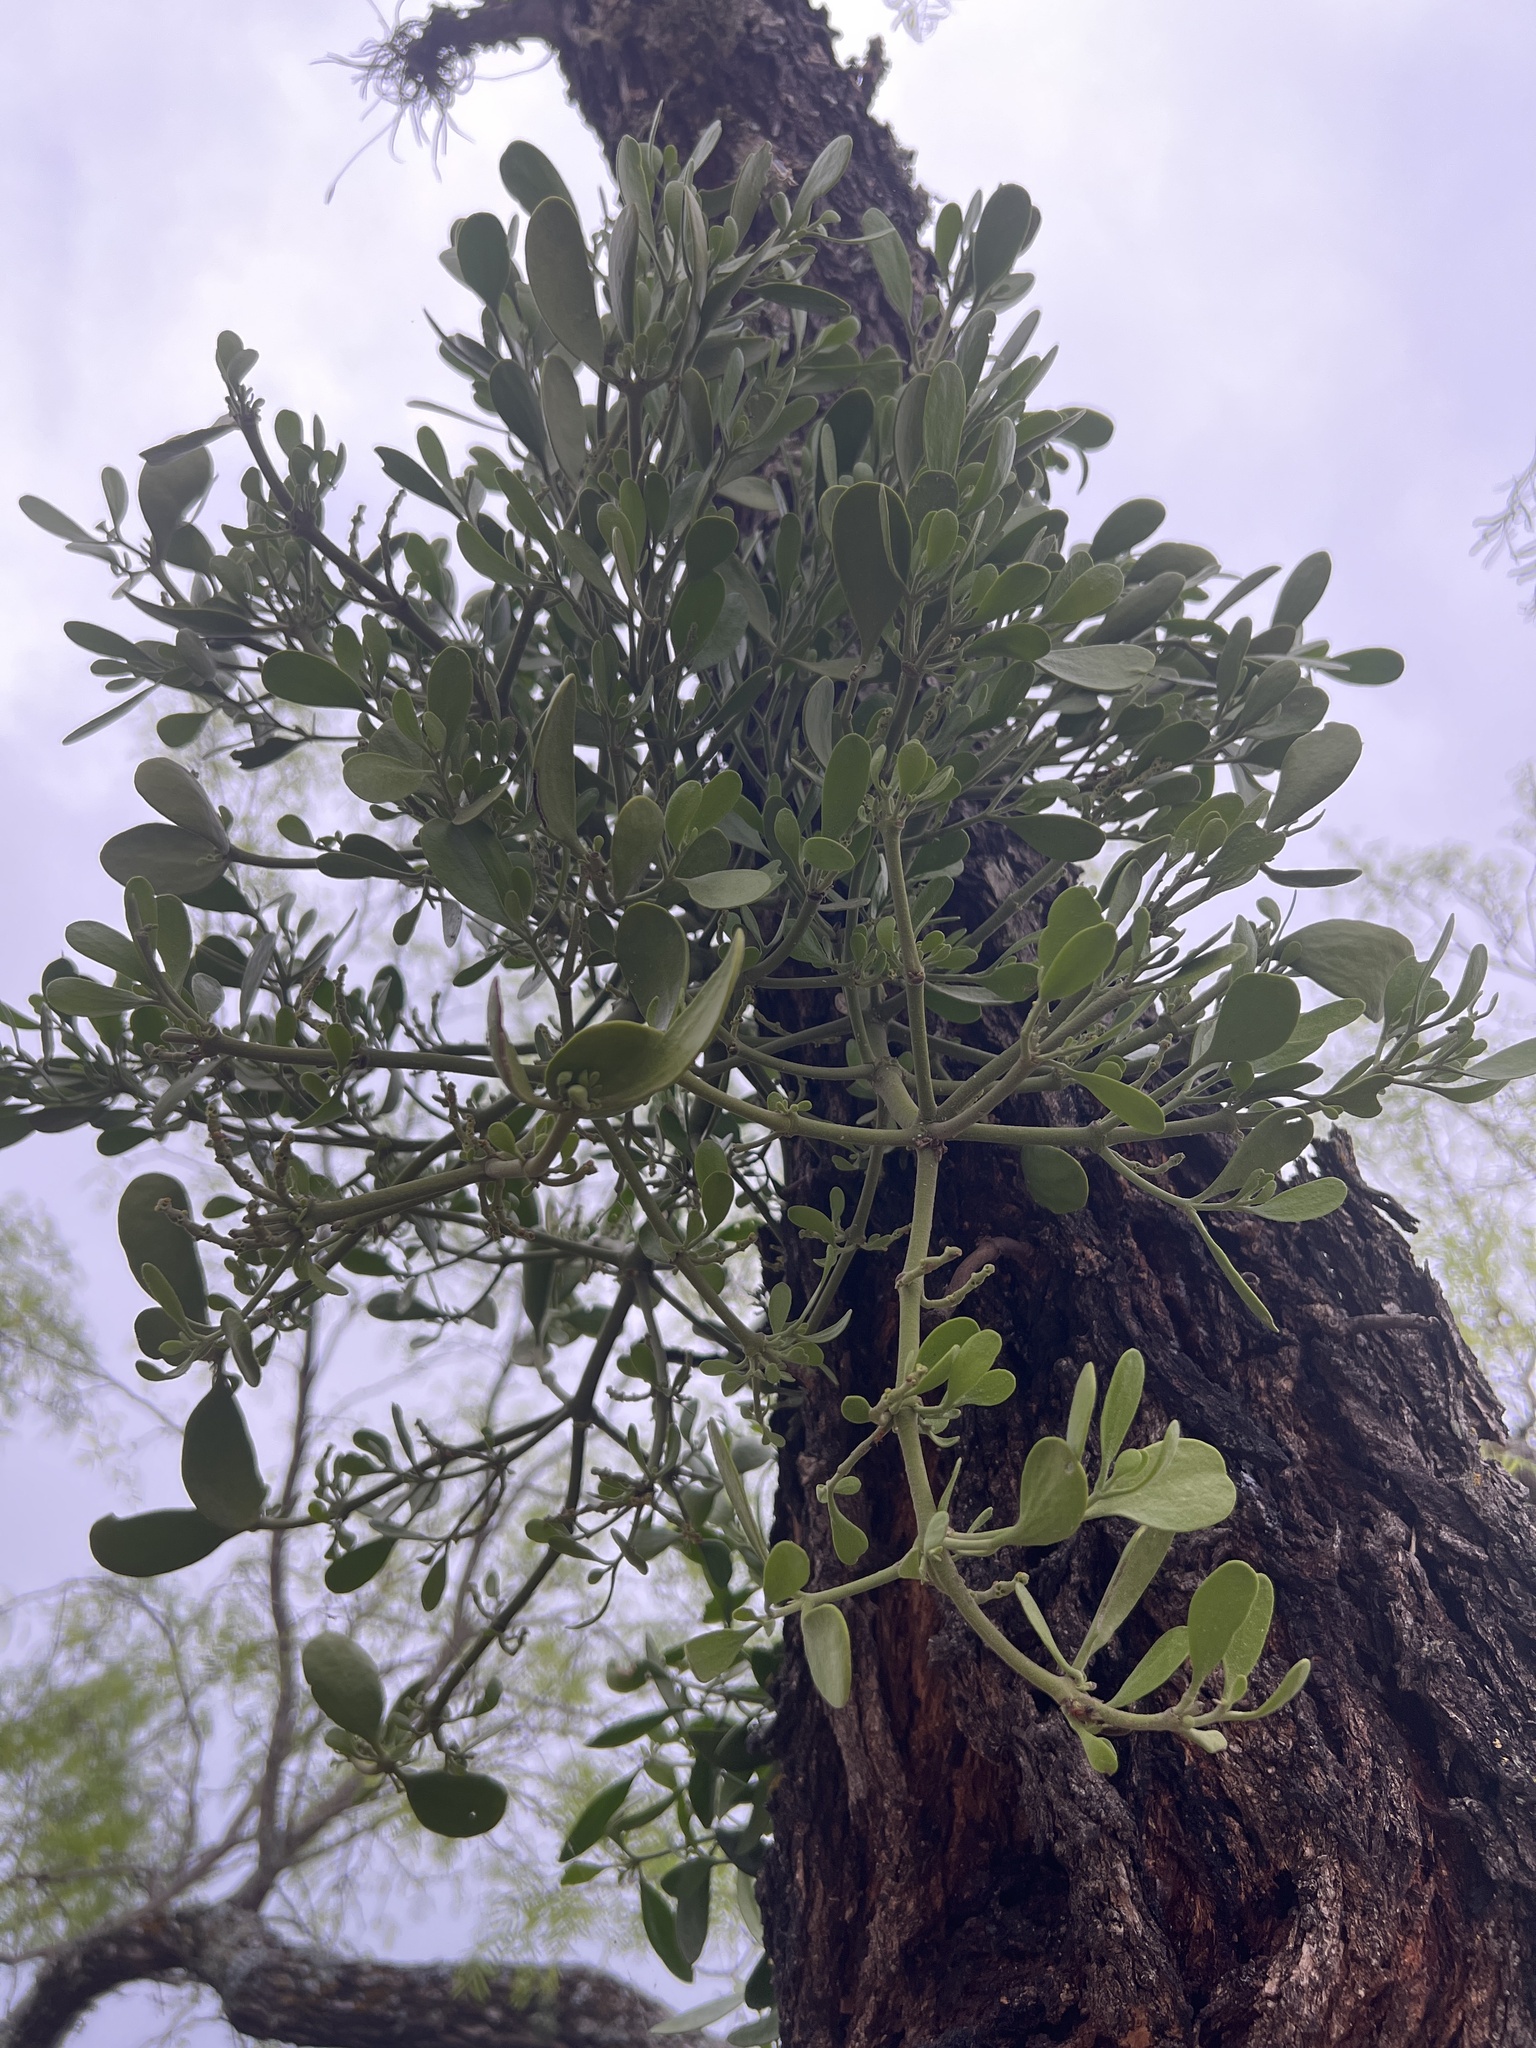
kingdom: Plantae
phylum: Tracheophyta
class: Magnoliopsida
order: Santalales
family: Viscaceae
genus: Phoradendron
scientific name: Phoradendron leucarpum
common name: Pacific mistletoe
